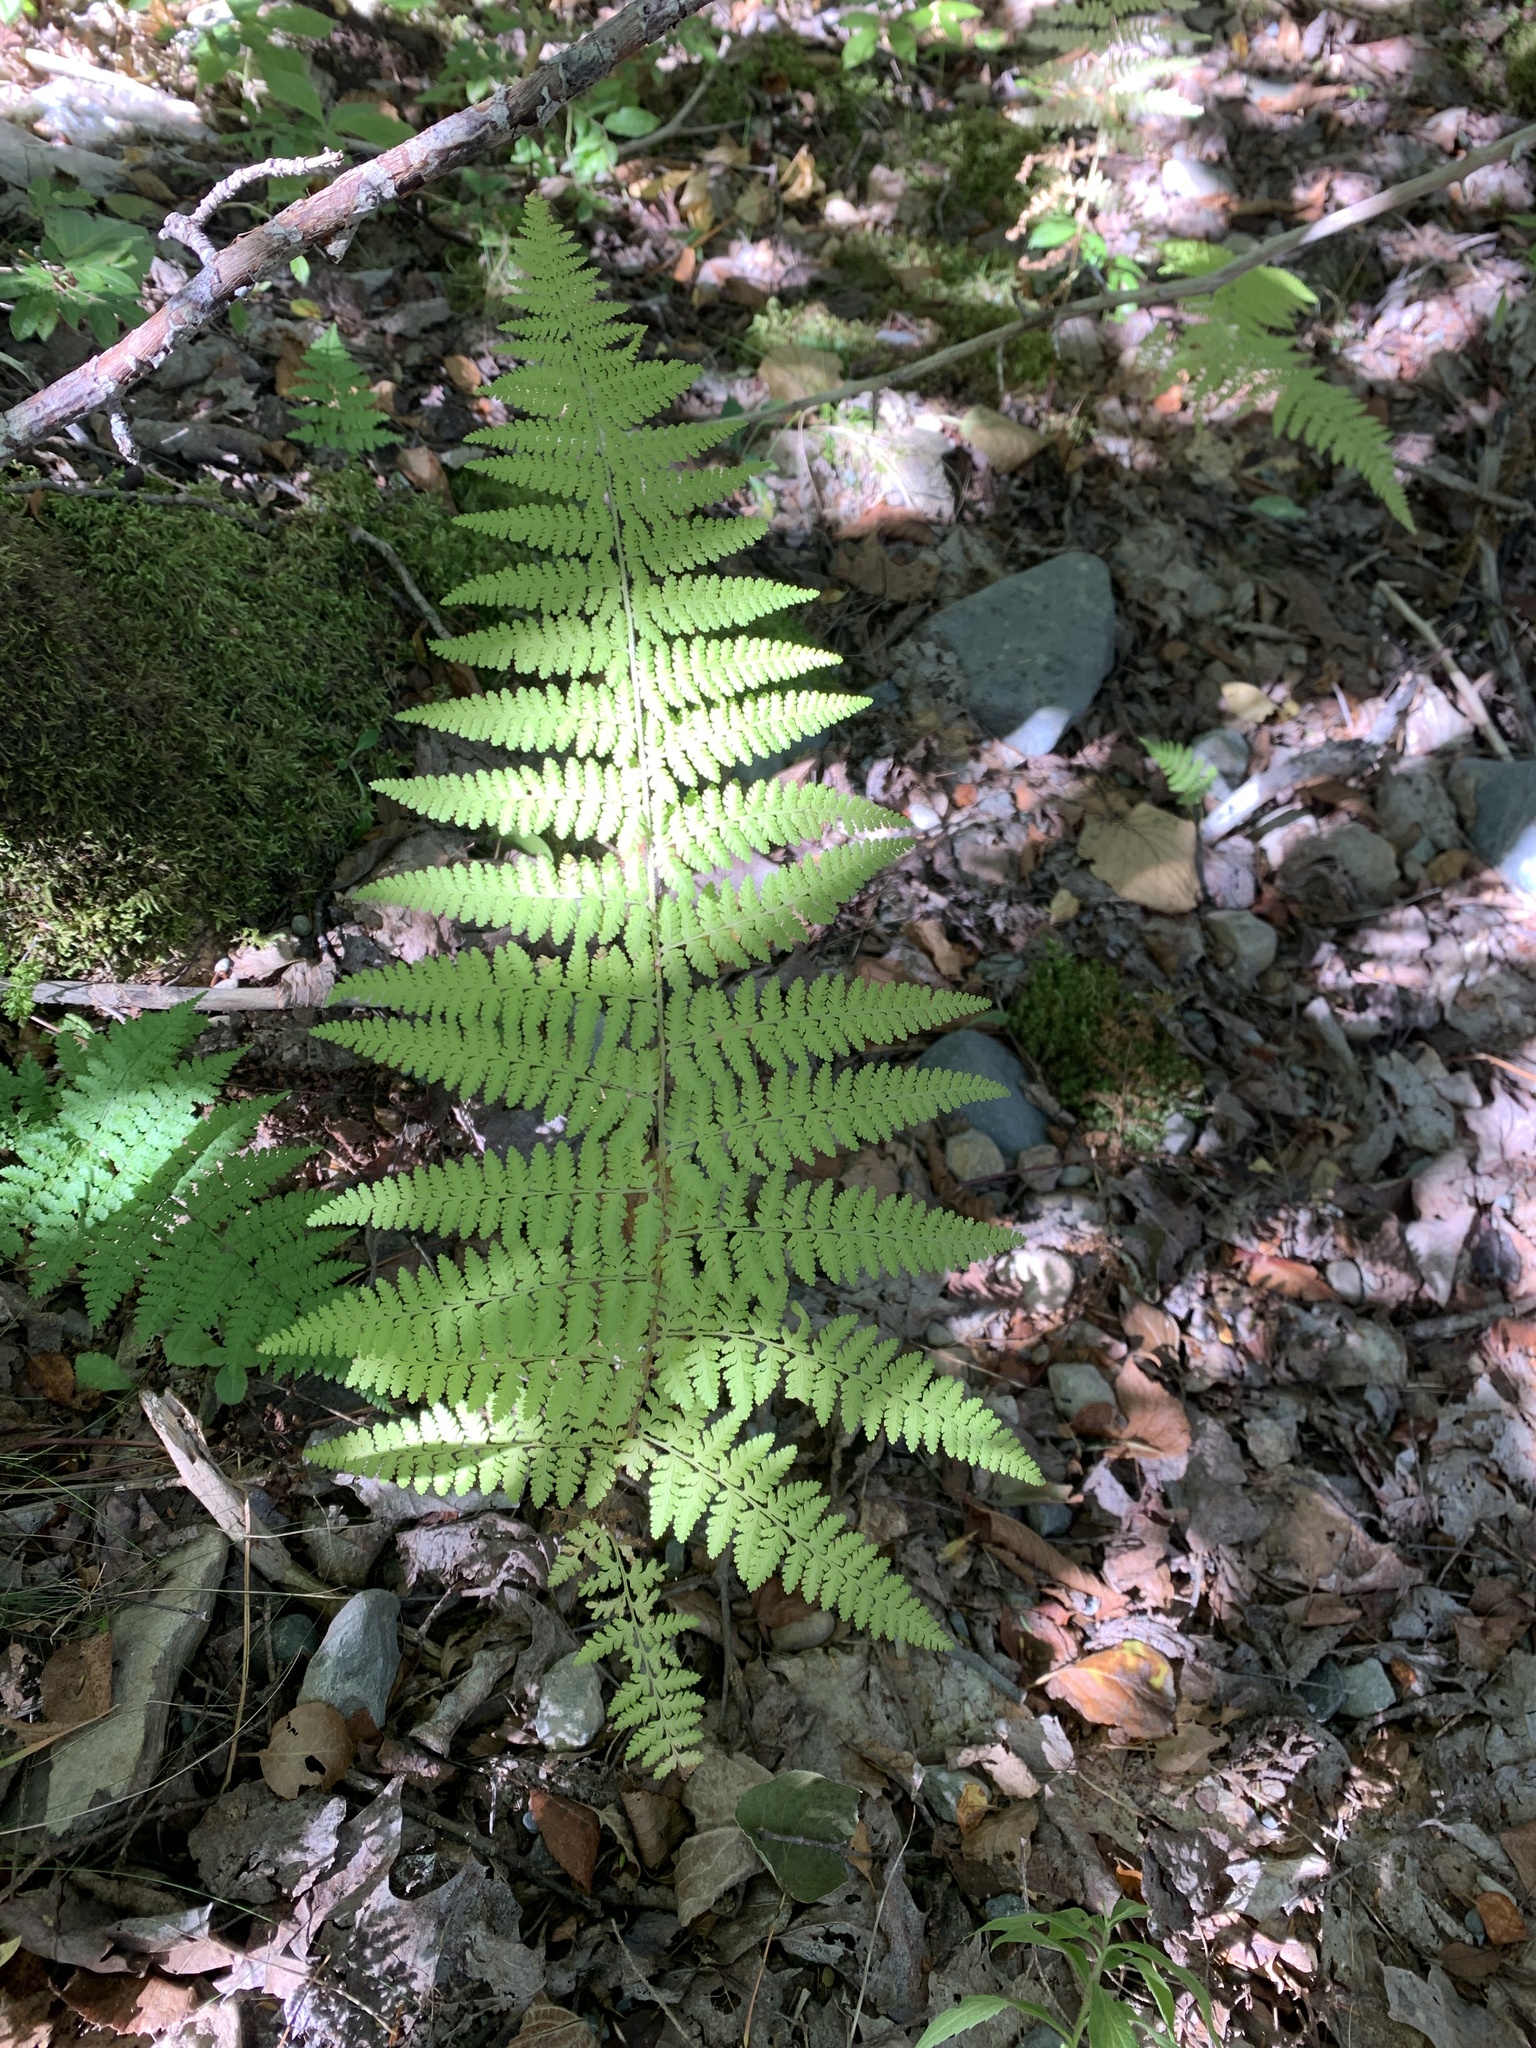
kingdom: Plantae
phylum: Tracheophyta
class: Polypodiopsida
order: Polypodiales
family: Dennstaedtiaceae
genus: Sitobolium
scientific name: Sitobolium punctilobum
